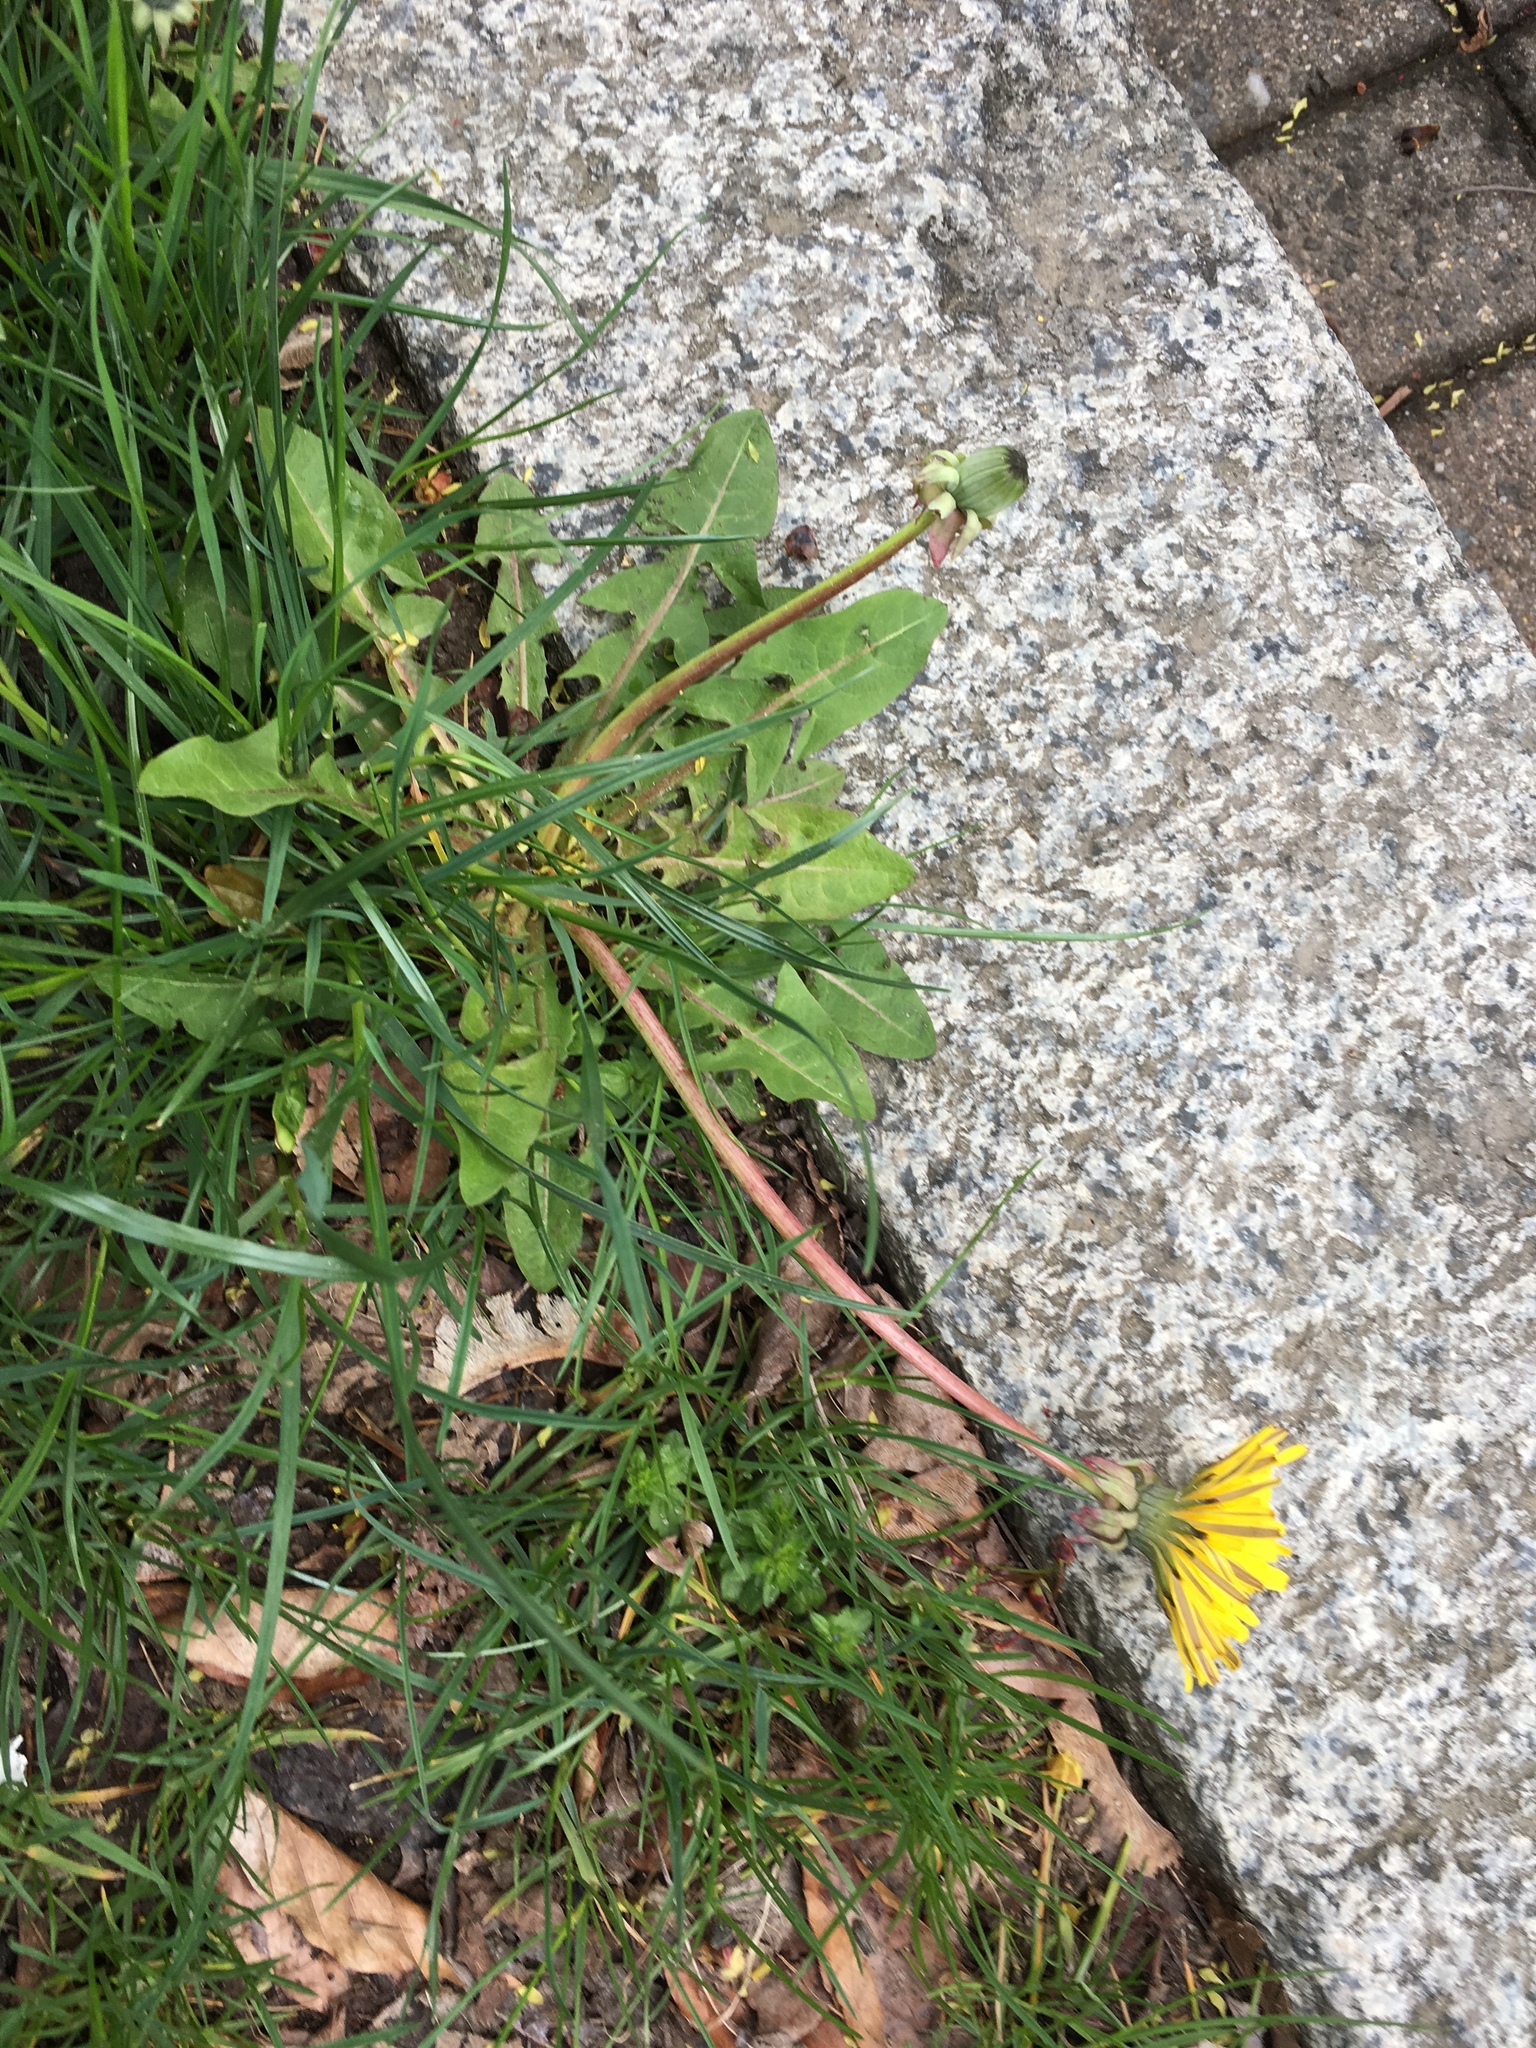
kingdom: Plantae
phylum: Tracheophyta
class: Magnoliopsida
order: Asterales
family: Asteraceae
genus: Taraxacum
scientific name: Taraxacum officinale
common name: Common dandelion
